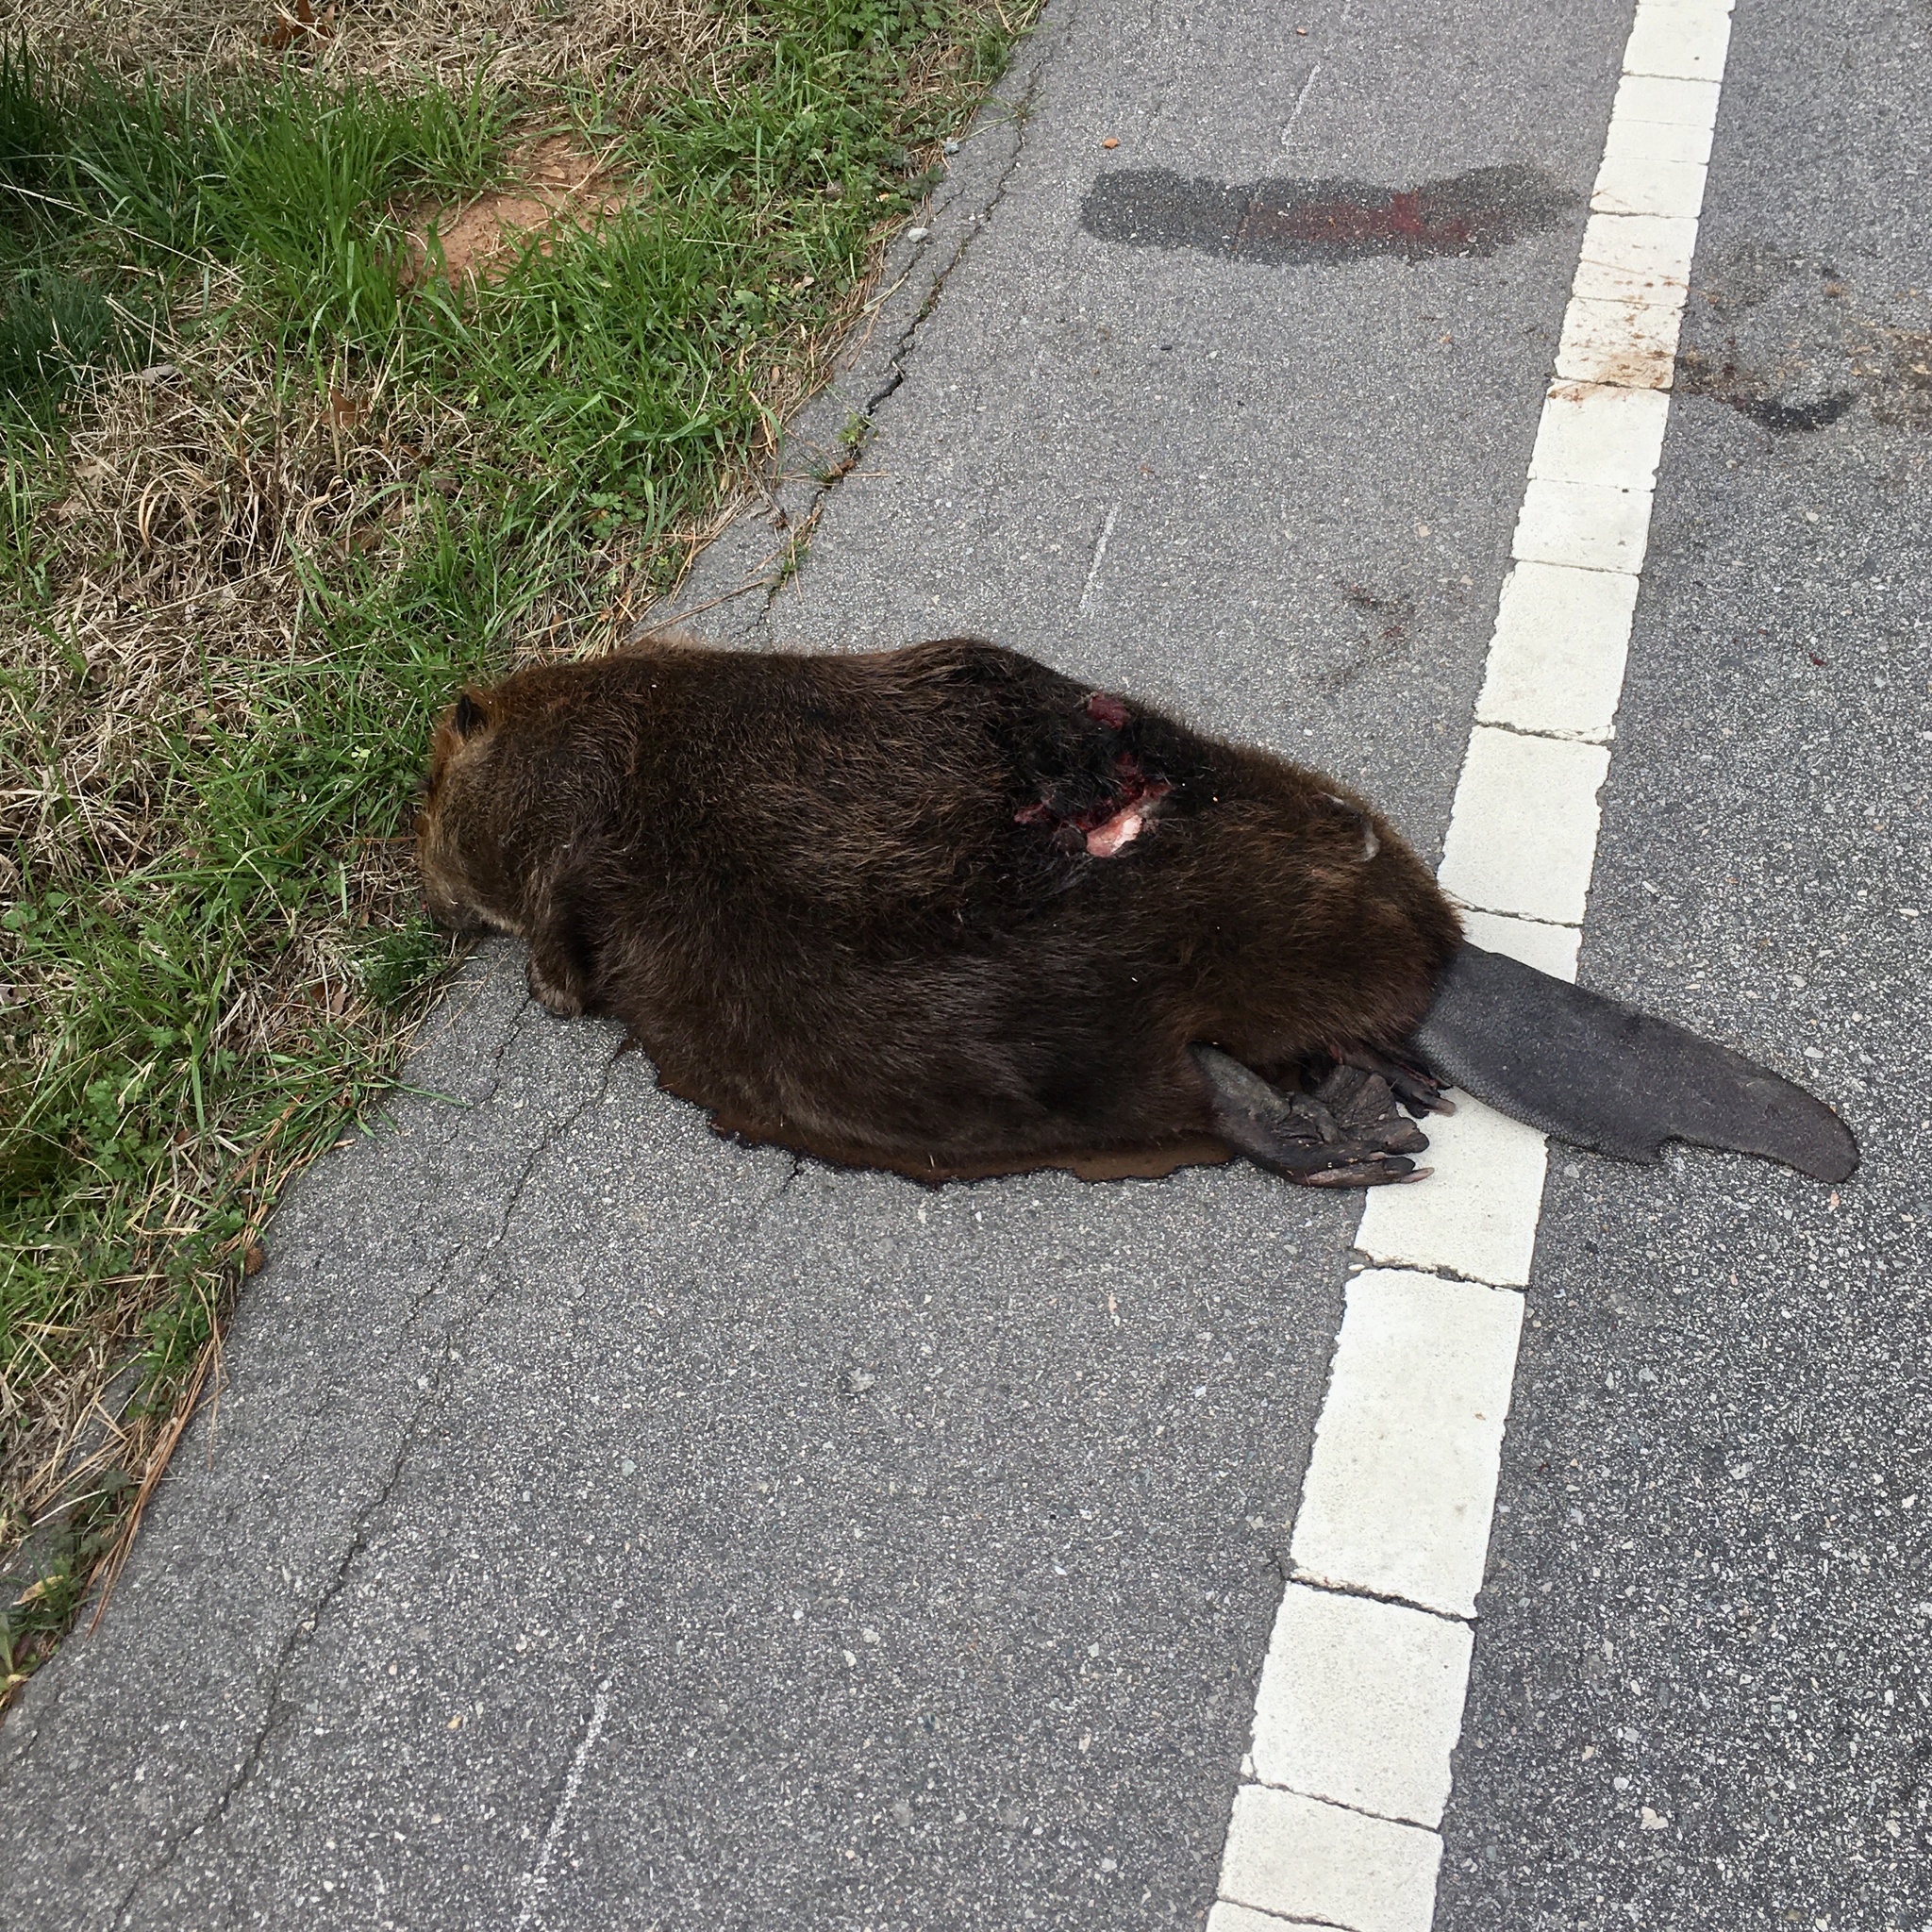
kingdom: Animalia
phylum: Chordata
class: Mammalia
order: Rodentia
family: Castoridae
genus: Castor
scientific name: Castor canadensis
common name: American beaver
